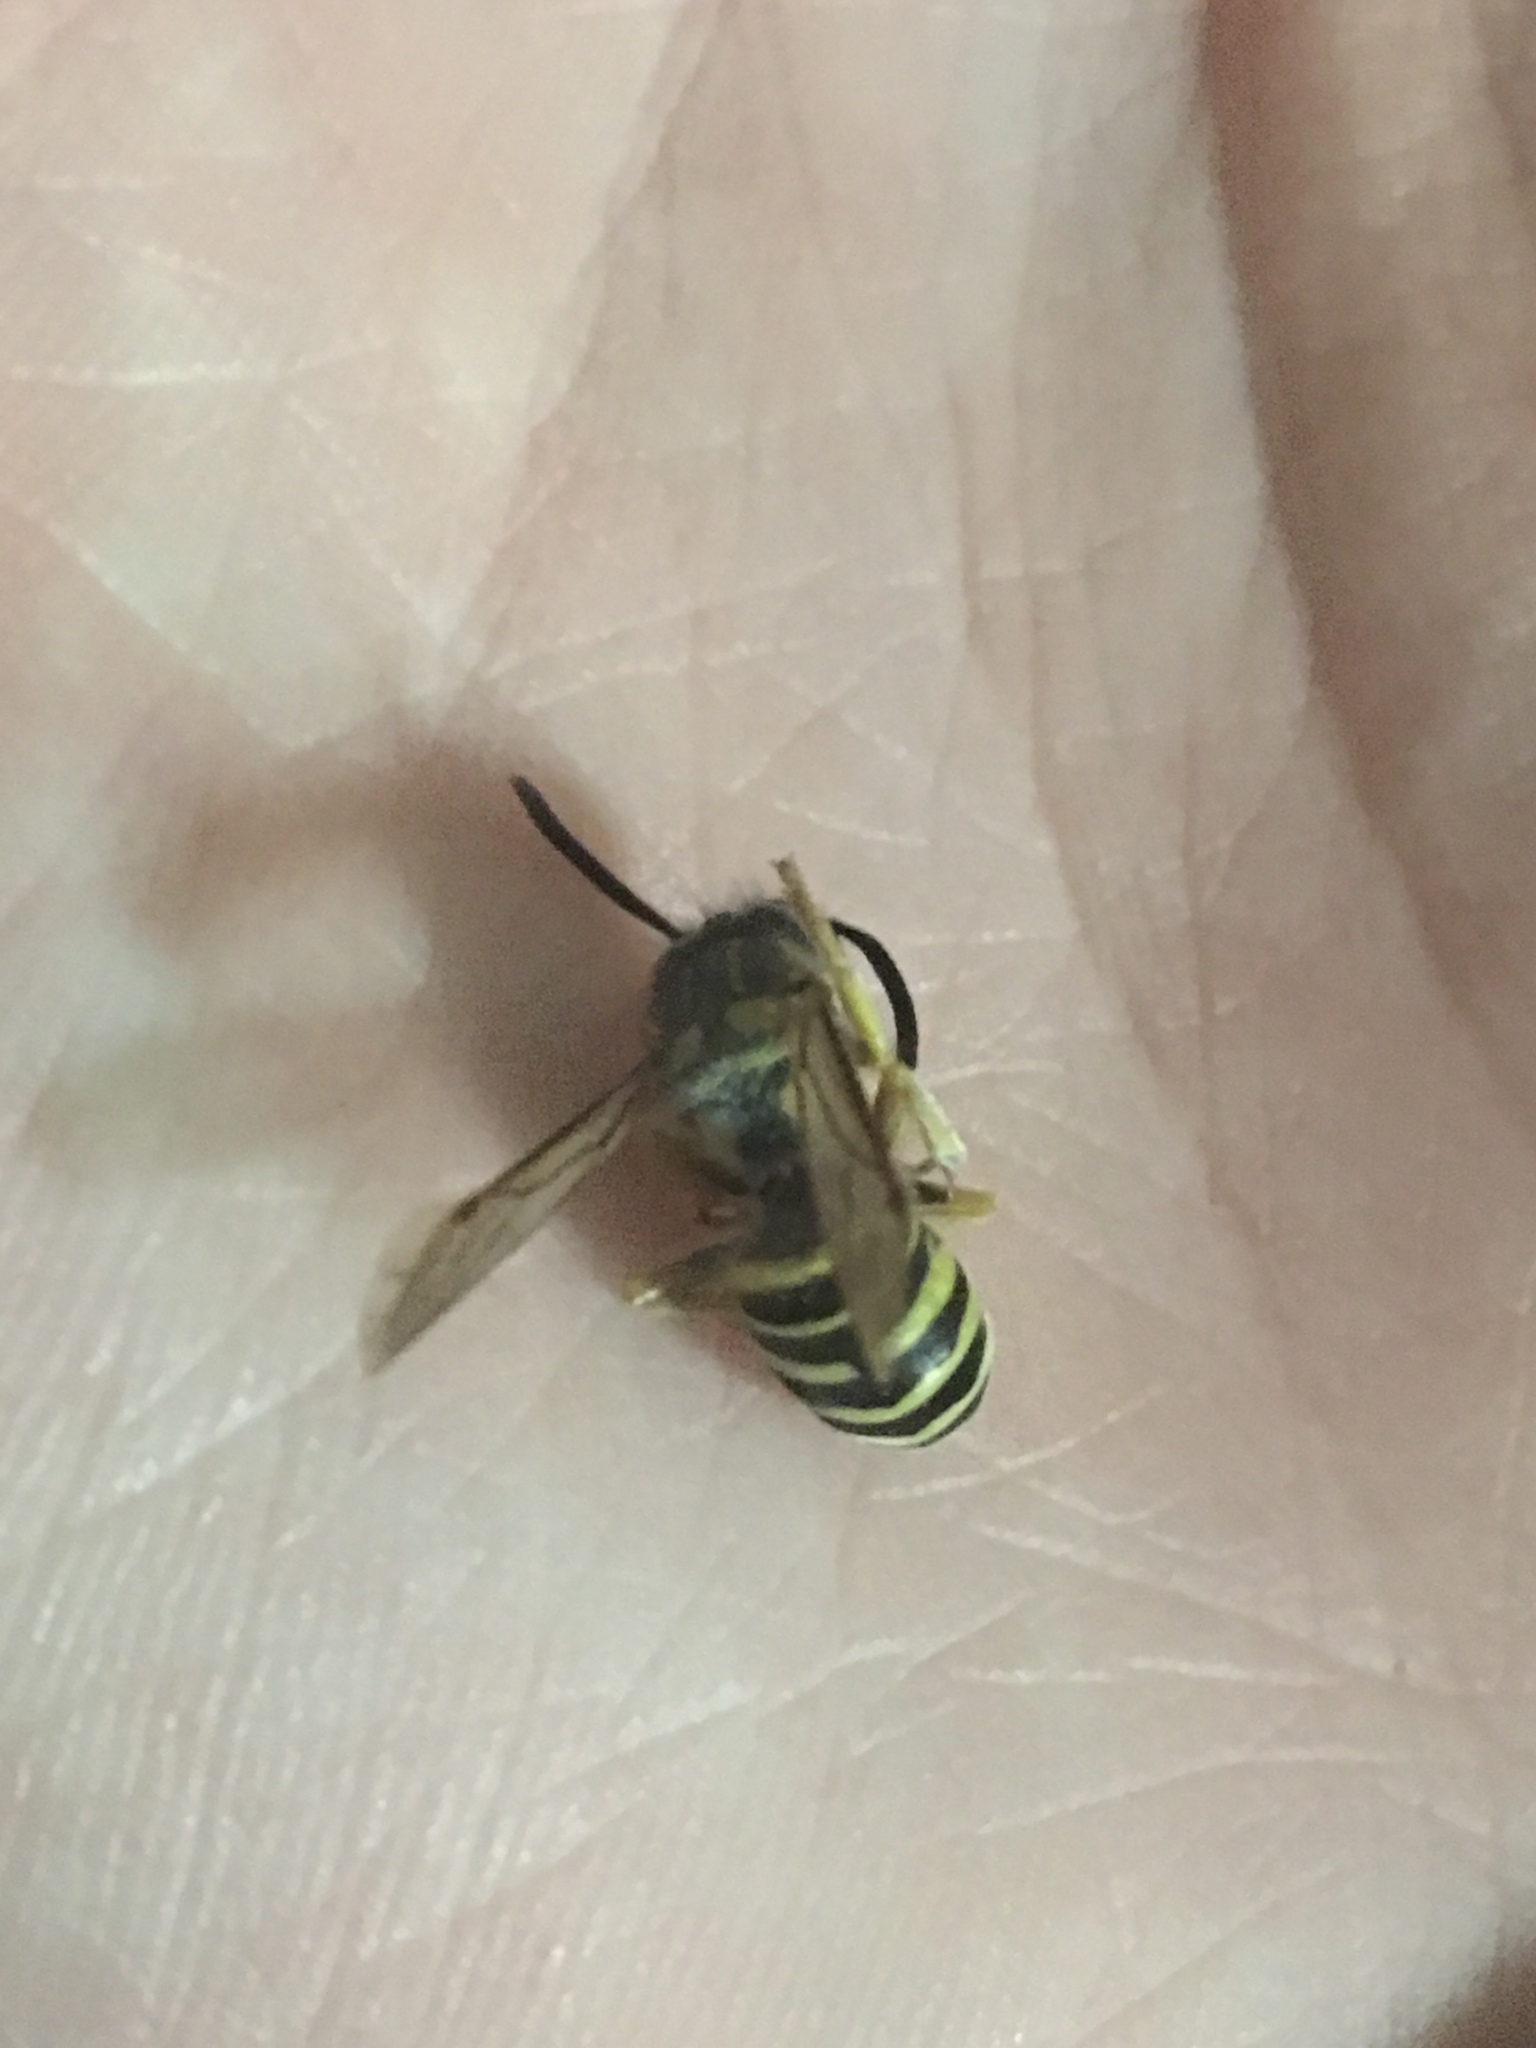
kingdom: Animalia
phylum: Arthropoda
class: Insecta
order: Hymenoptera
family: Vespidae
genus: Vespula
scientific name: Vespula squamosa
